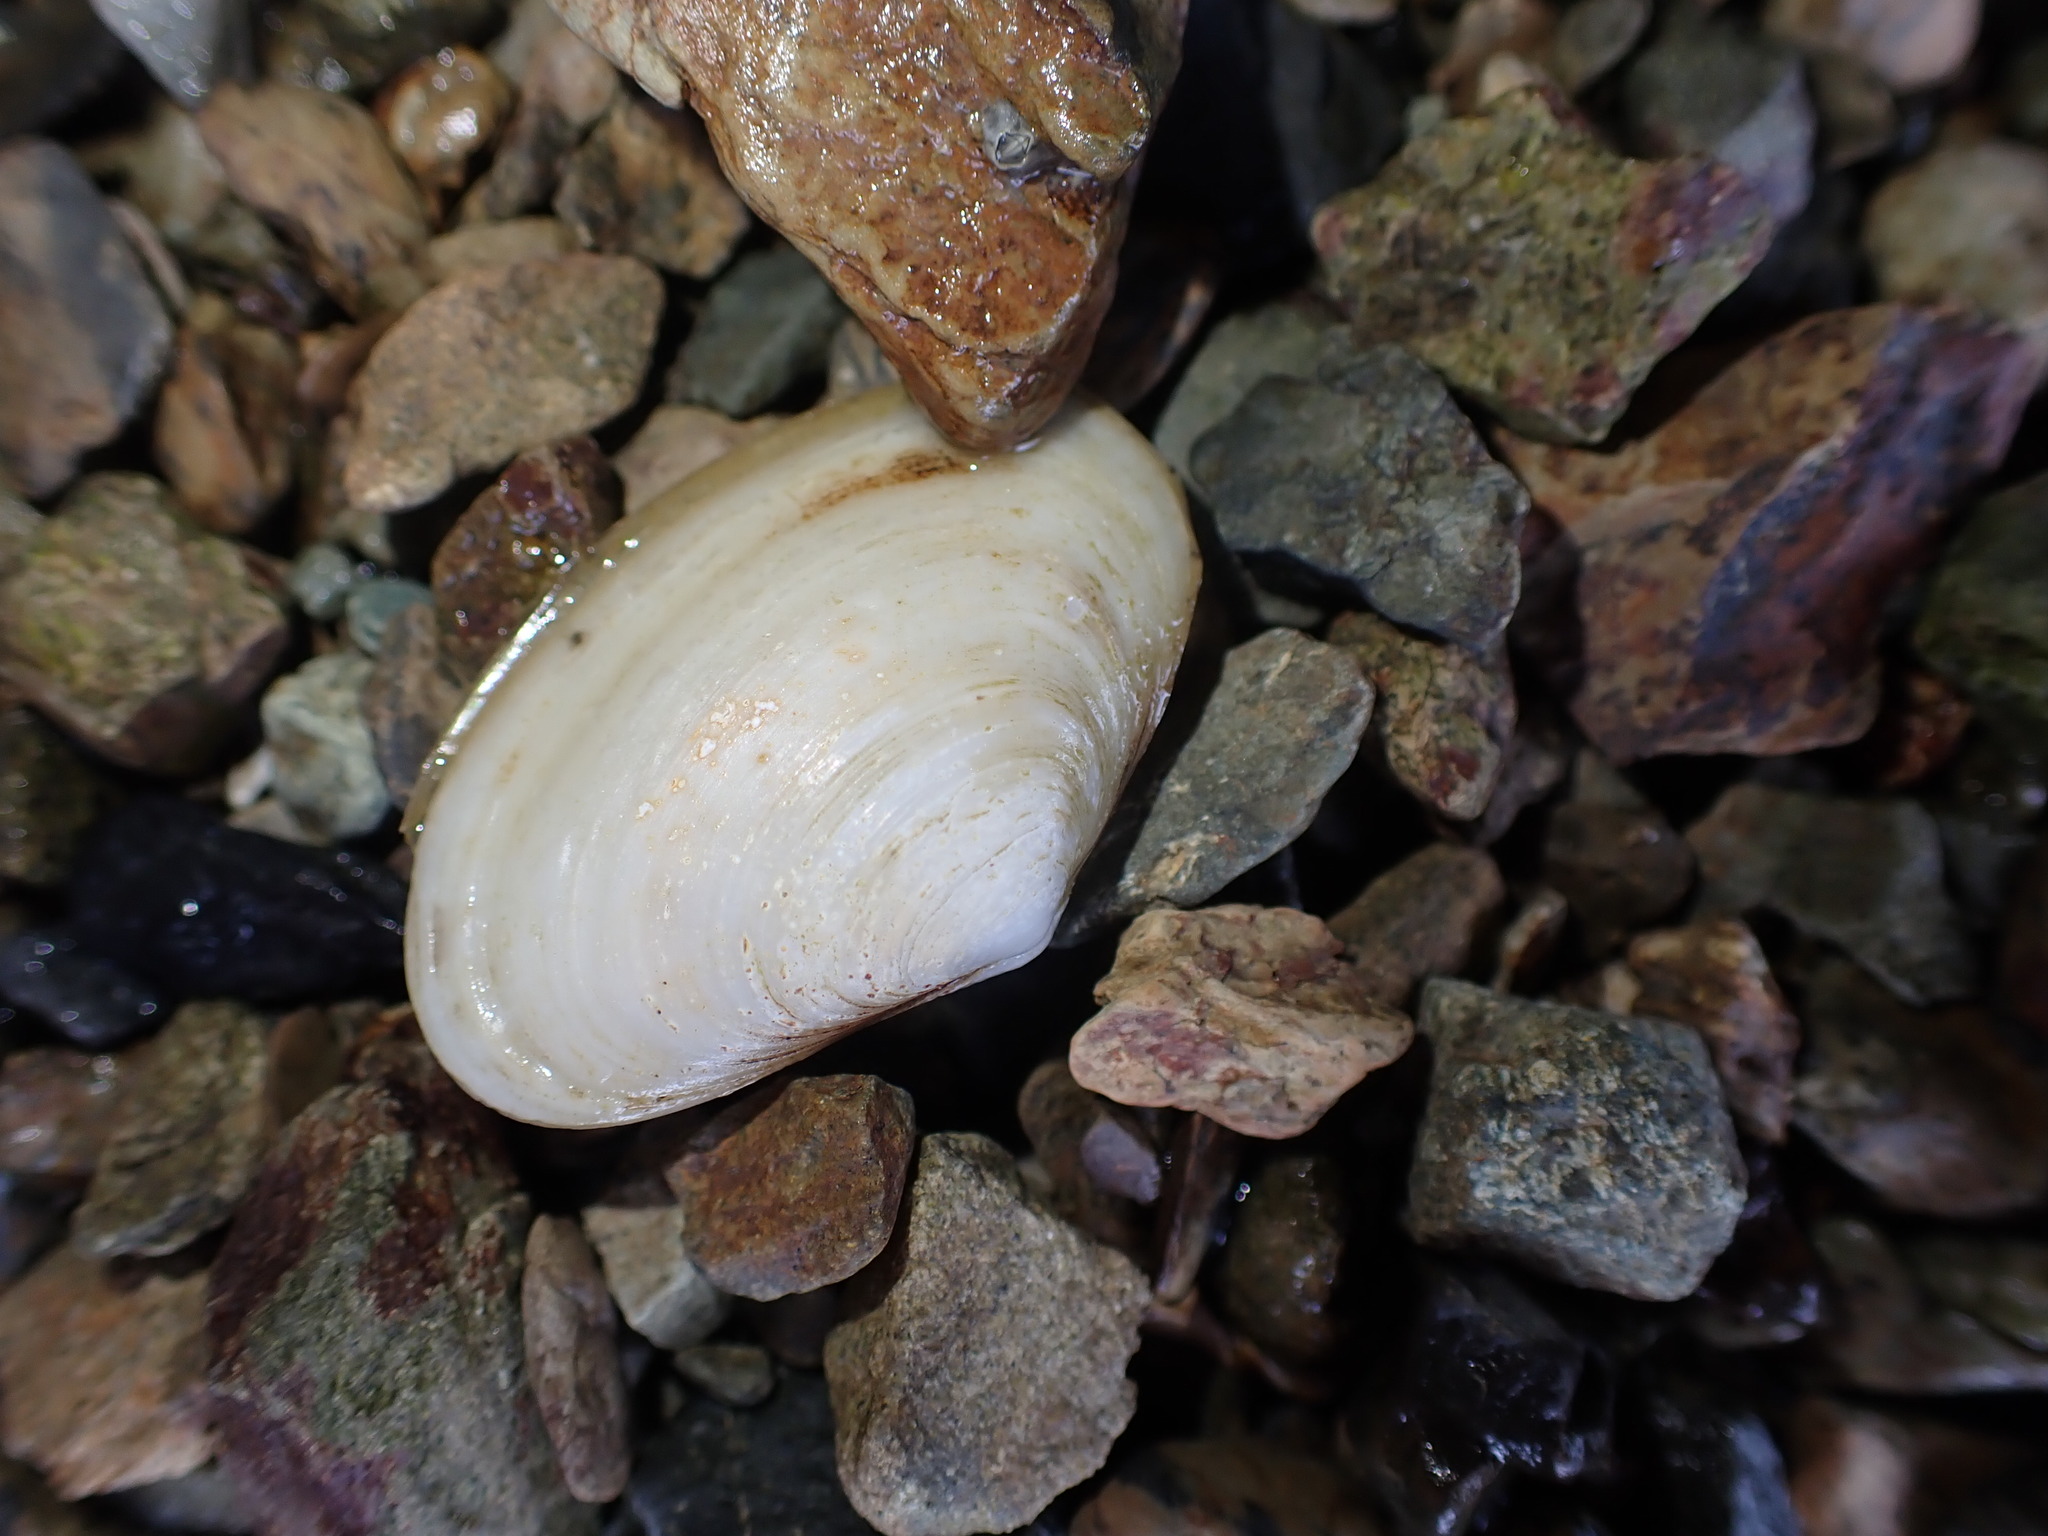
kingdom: Animalia
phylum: Mollusca
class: Bivalvia
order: Venerida
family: Mesodesmatidae
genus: Paphies
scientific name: Paphies australis
